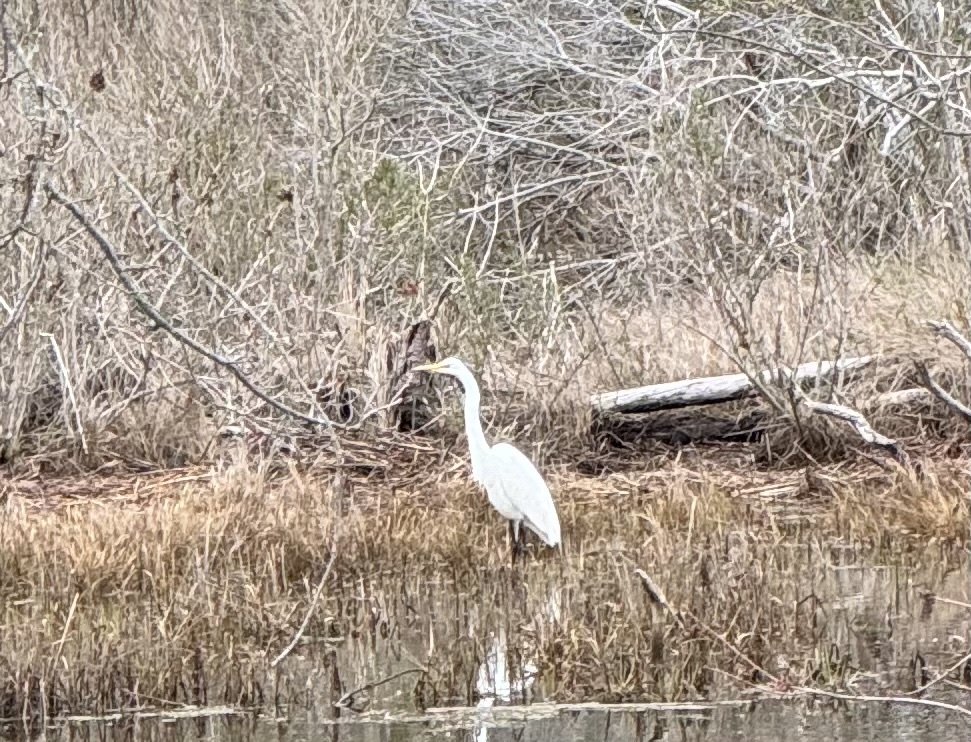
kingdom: Animalia
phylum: Chordata
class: Aves
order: Pelecaniformes
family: Ardeidae
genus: Ardea
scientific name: Ardea alba
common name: Great egret
